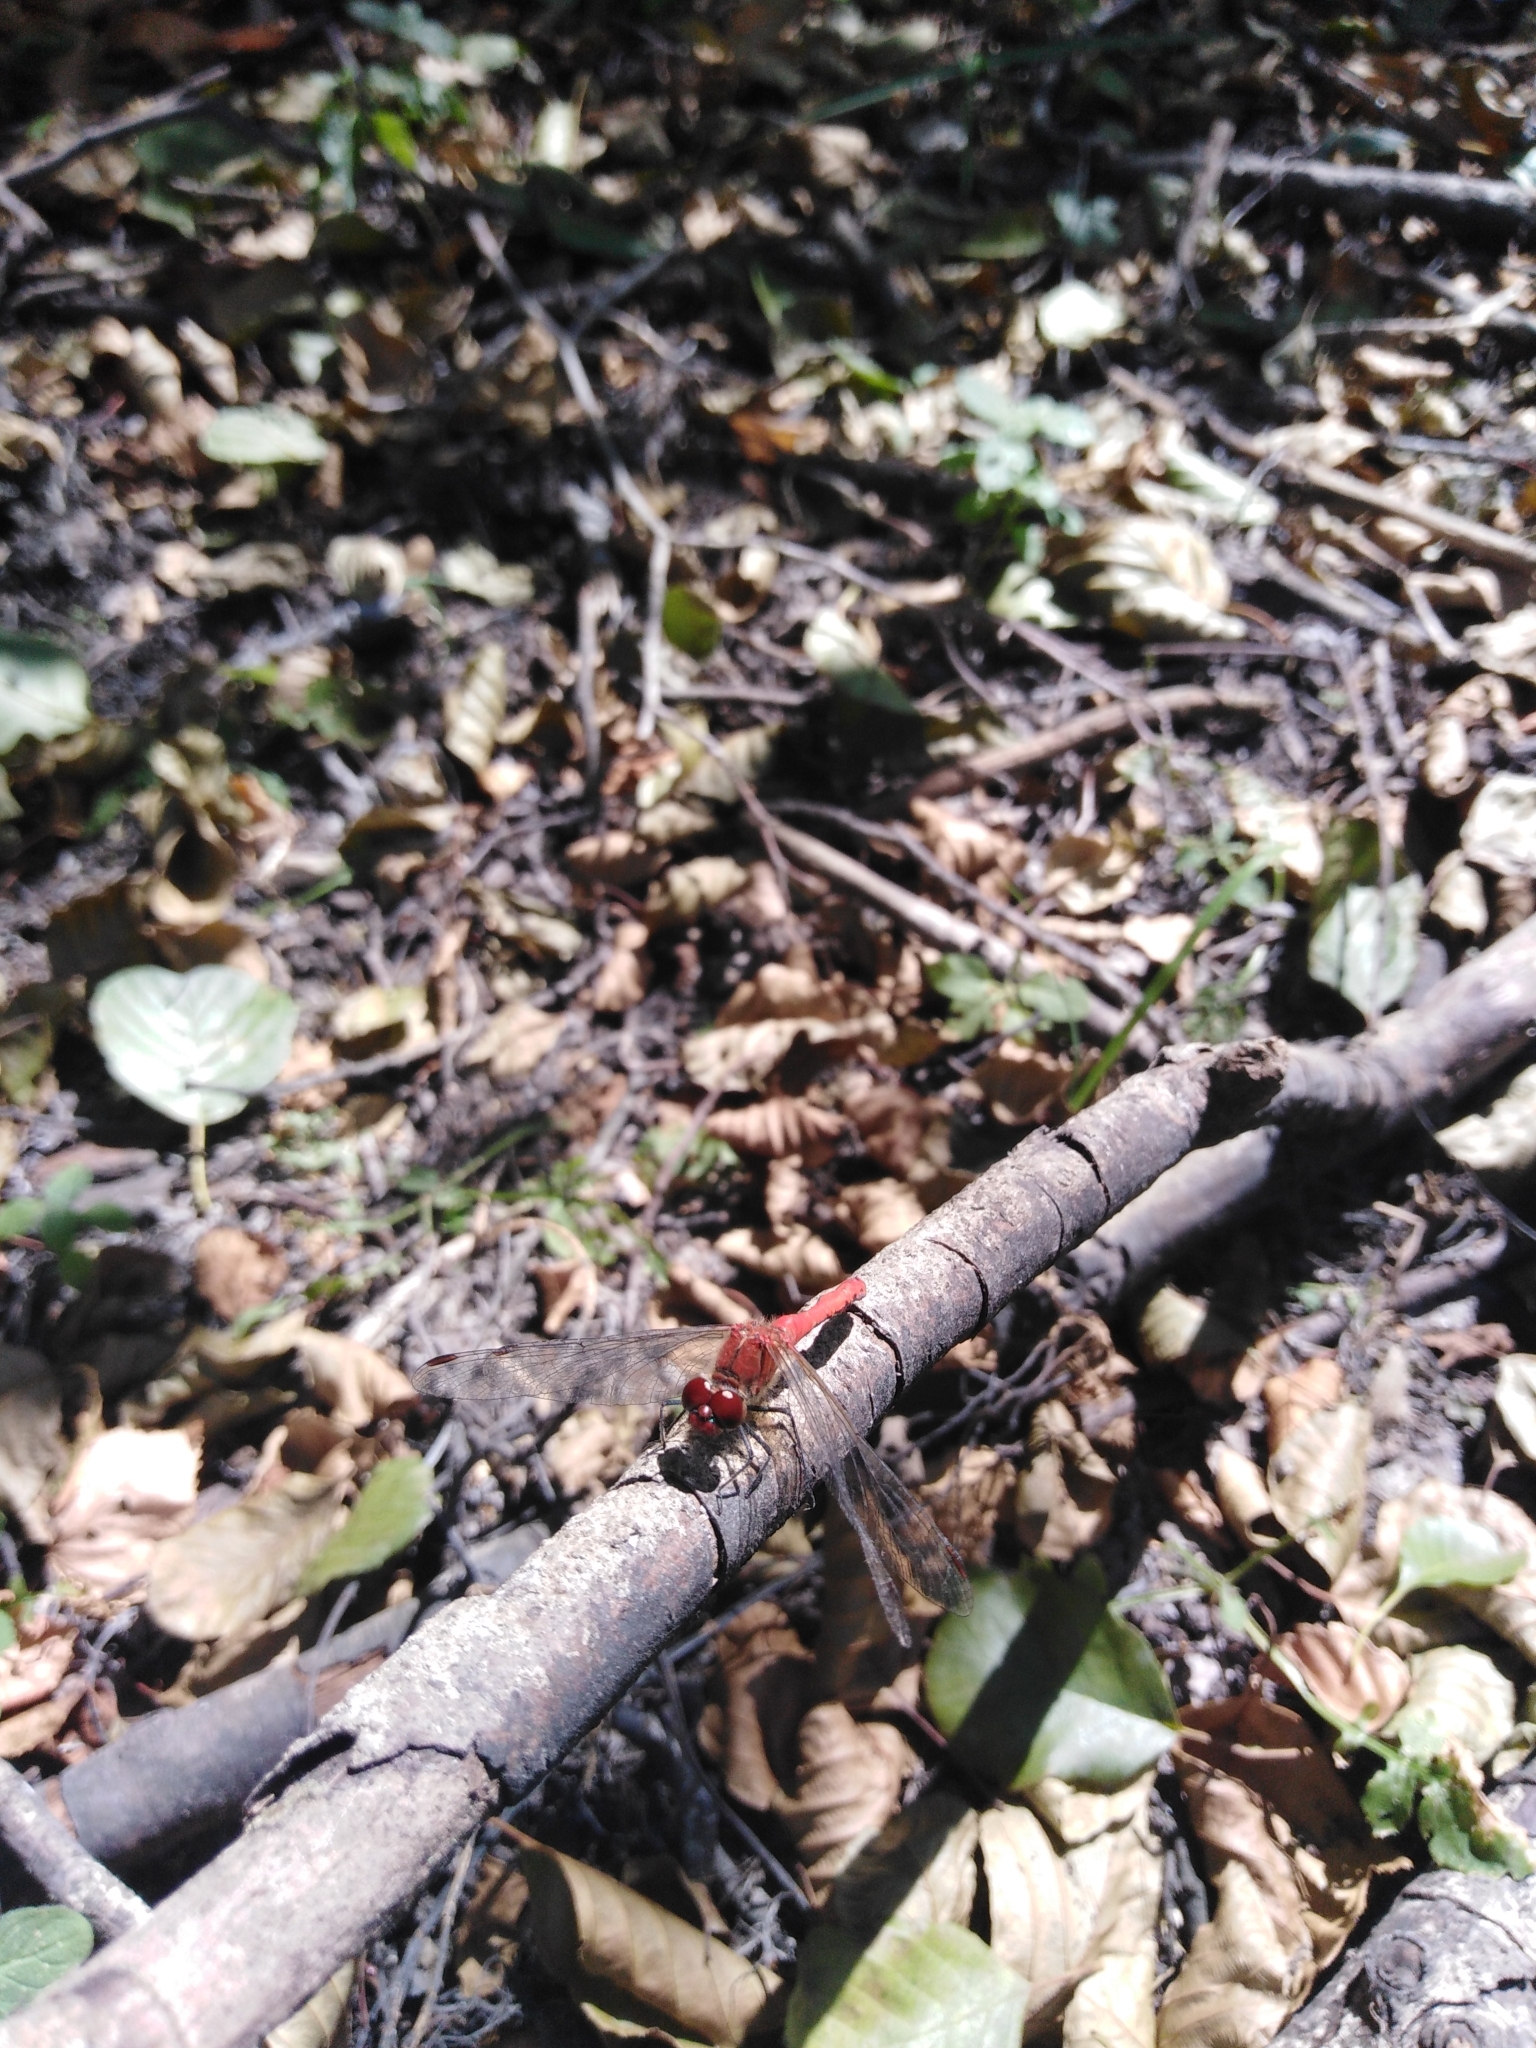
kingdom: Animalia
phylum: Arthropoda
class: Insecta
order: Odonata
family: Libellulidae
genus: Sympetrum
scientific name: Sympetrum sanguineum
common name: Ruddy darter
